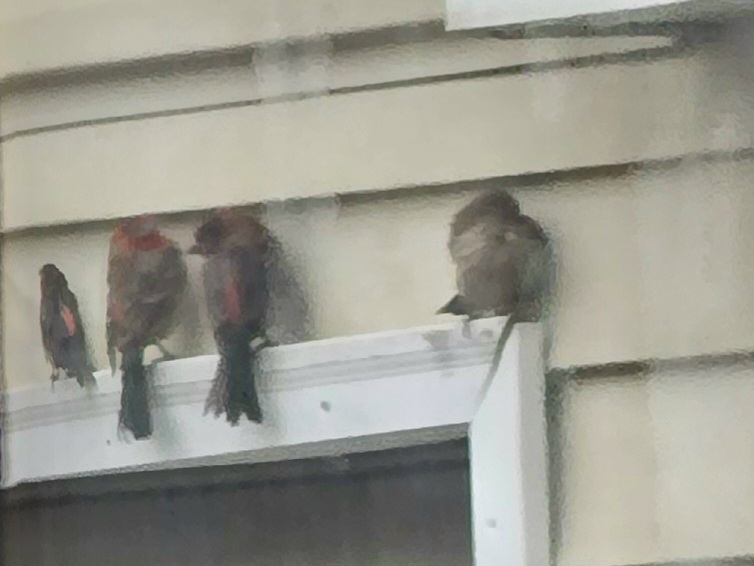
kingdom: Animalia
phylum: Chordata
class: Aves
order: Passeriformes
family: Fringillidae
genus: Haemorhous
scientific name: Haemorhous mexicanus
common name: House finch
